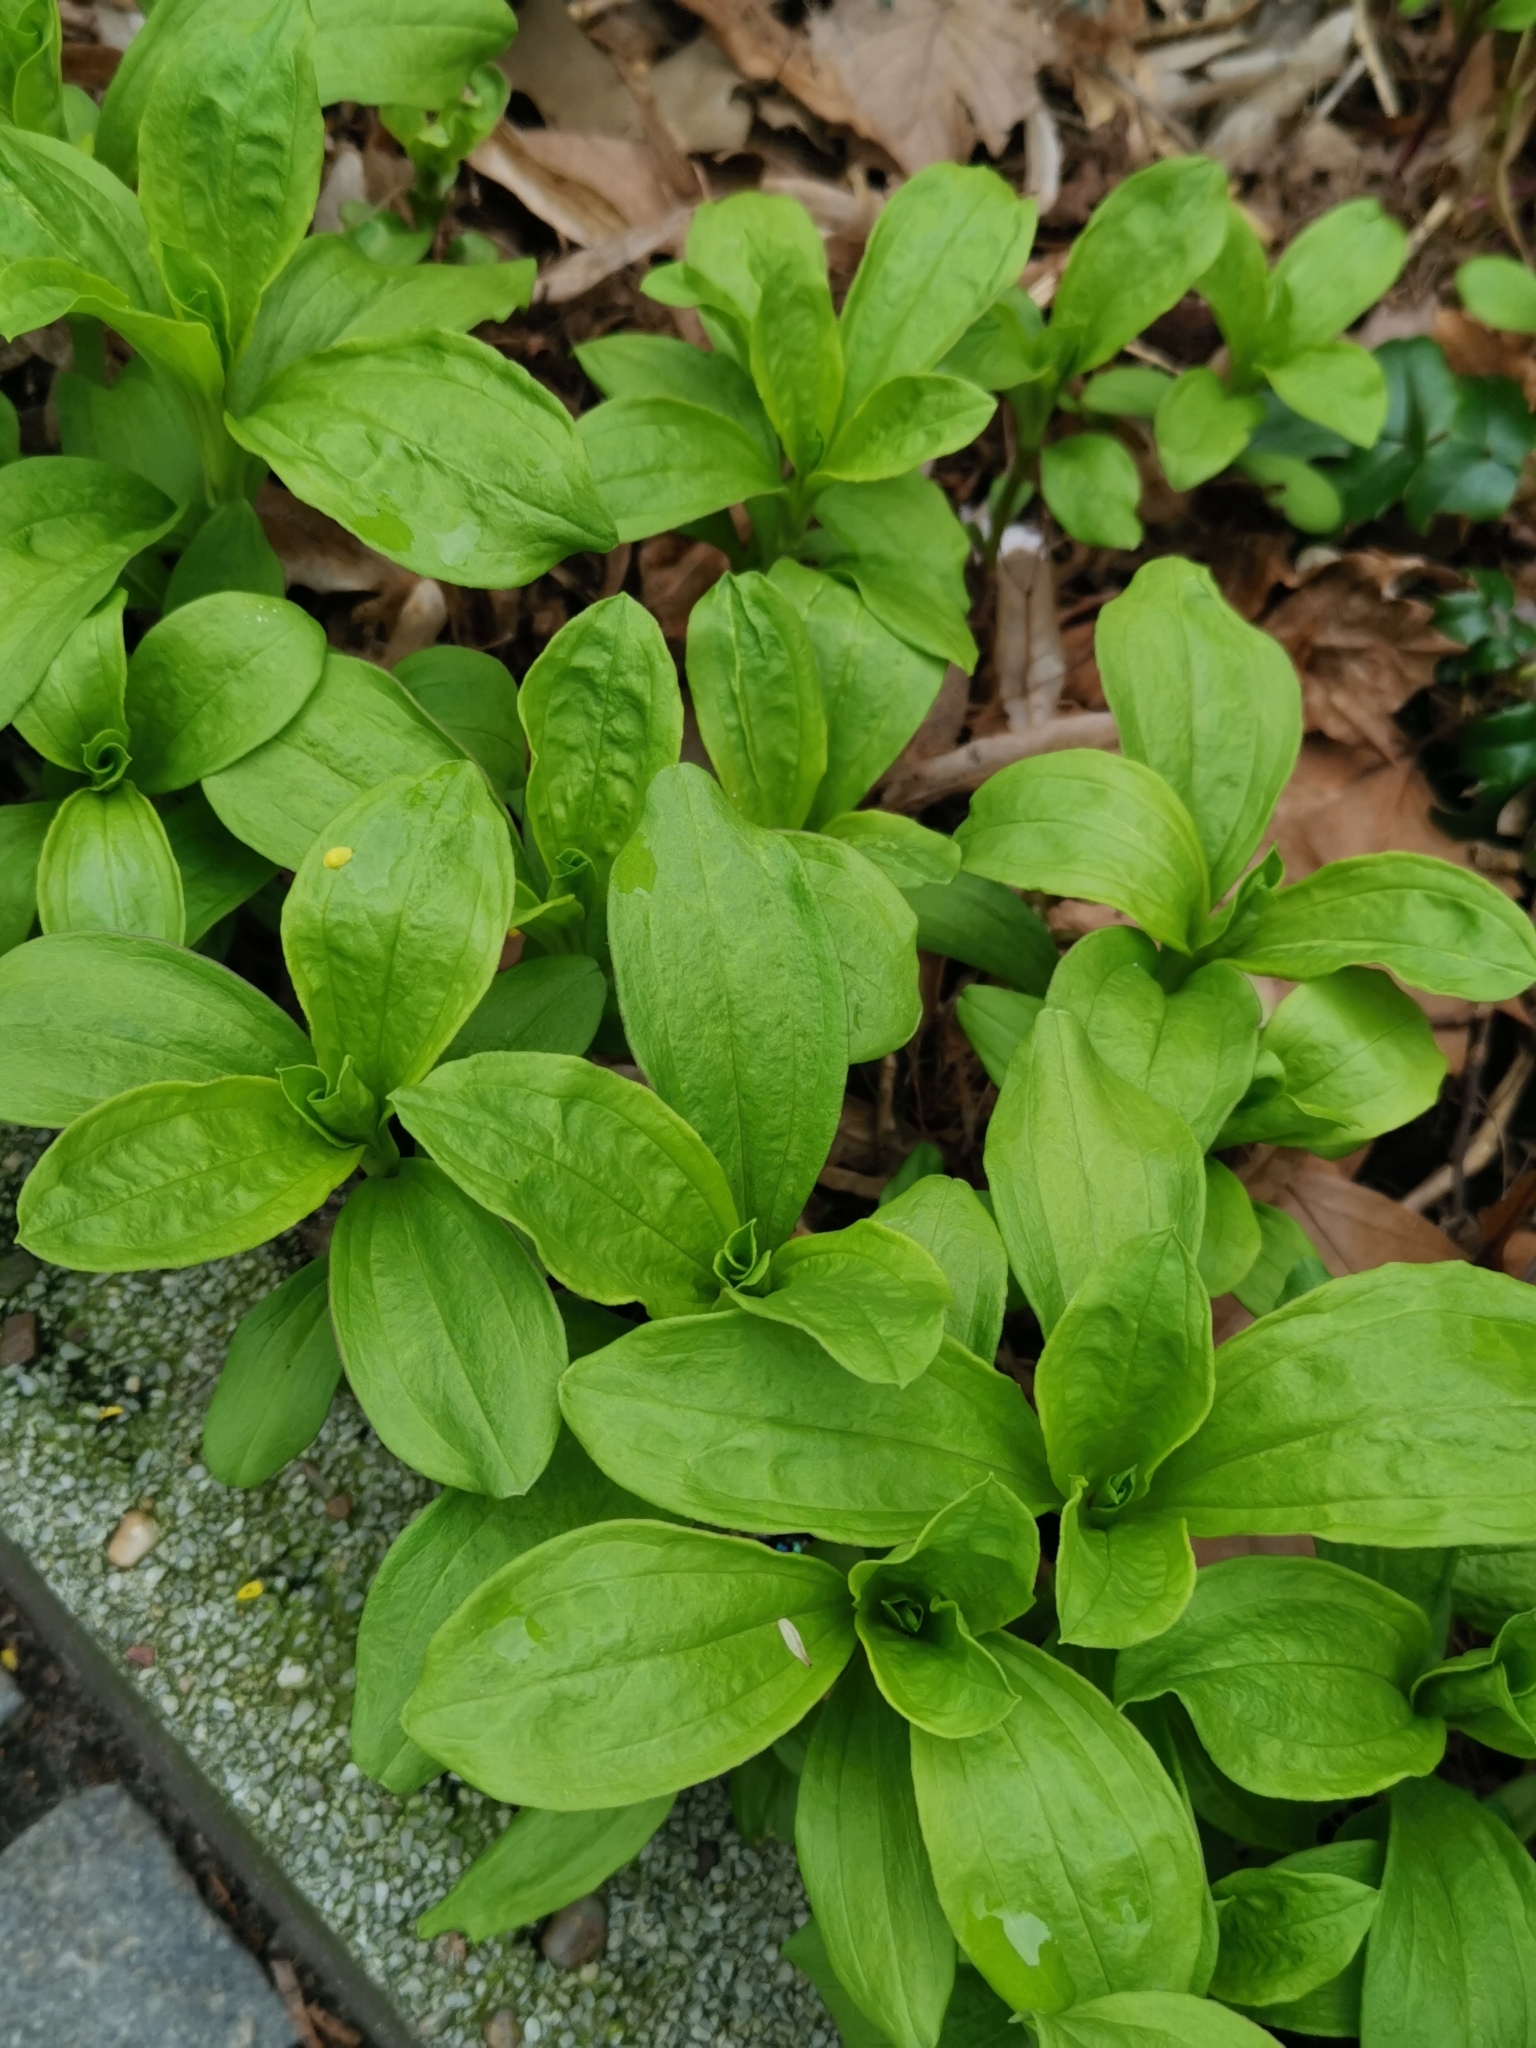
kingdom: Plantae
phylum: Tracheophyta
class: Magnoliopsida
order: Caryophyllales
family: Caryophyllaceae
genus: Saponaria
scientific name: Saponaria officinalis
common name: Soapwort
